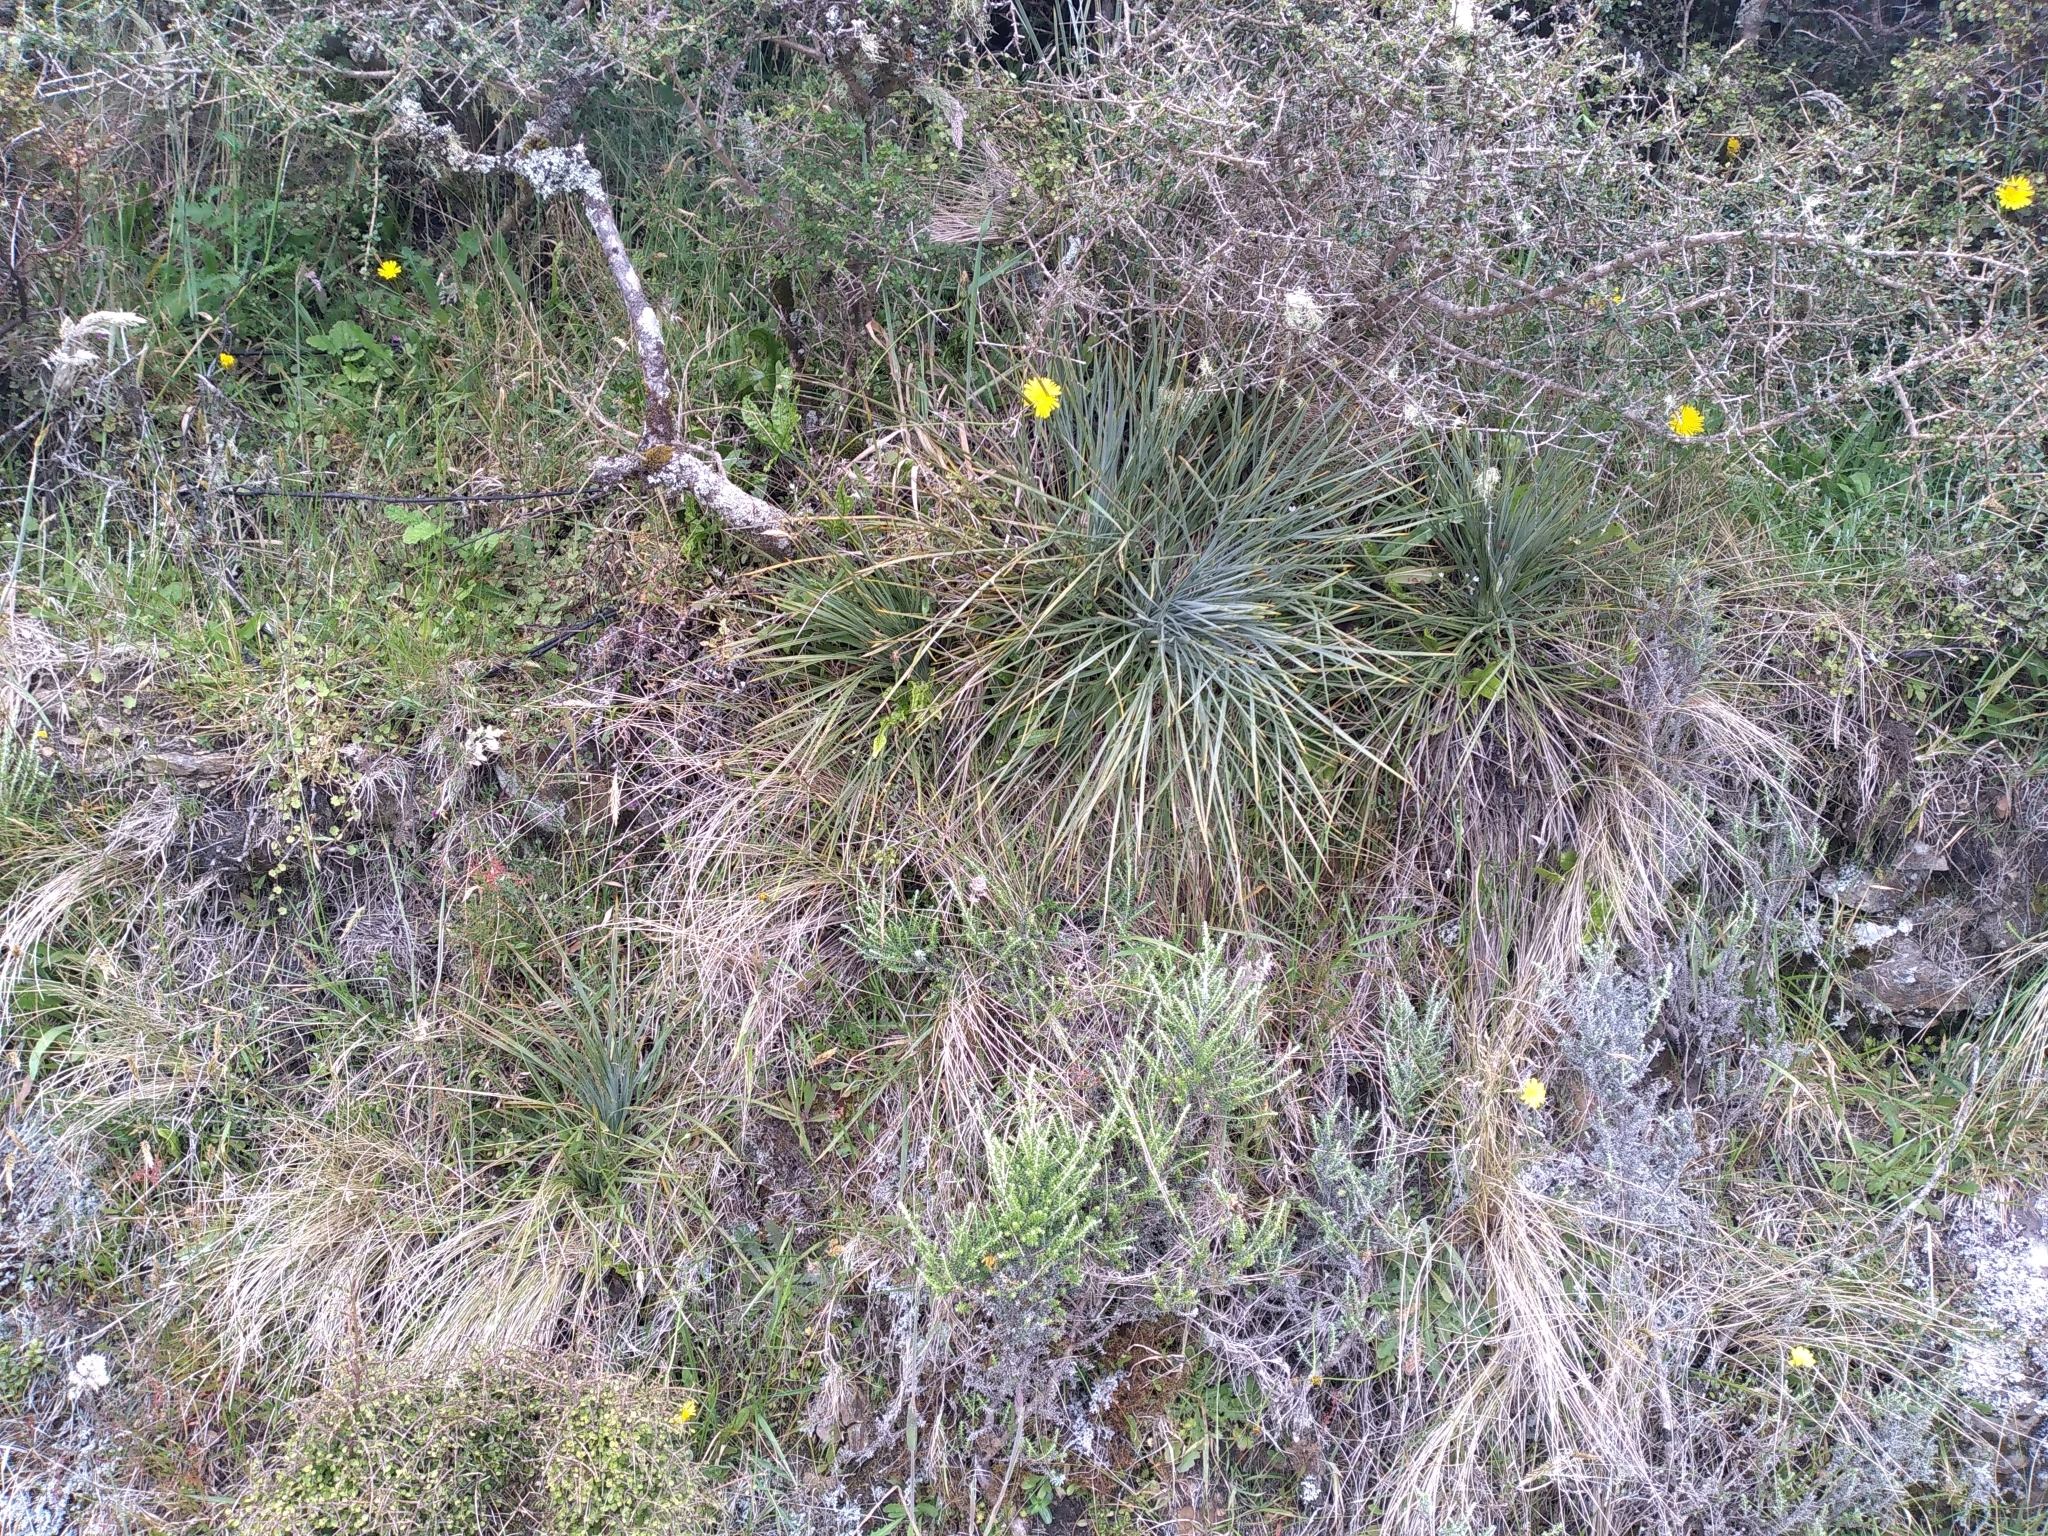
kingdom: Plantae
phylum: Tracheophyta
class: Magnoliopsida
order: Apiales
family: Apiaceae
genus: Aciphylla
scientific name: Aciphylla squarrosa
